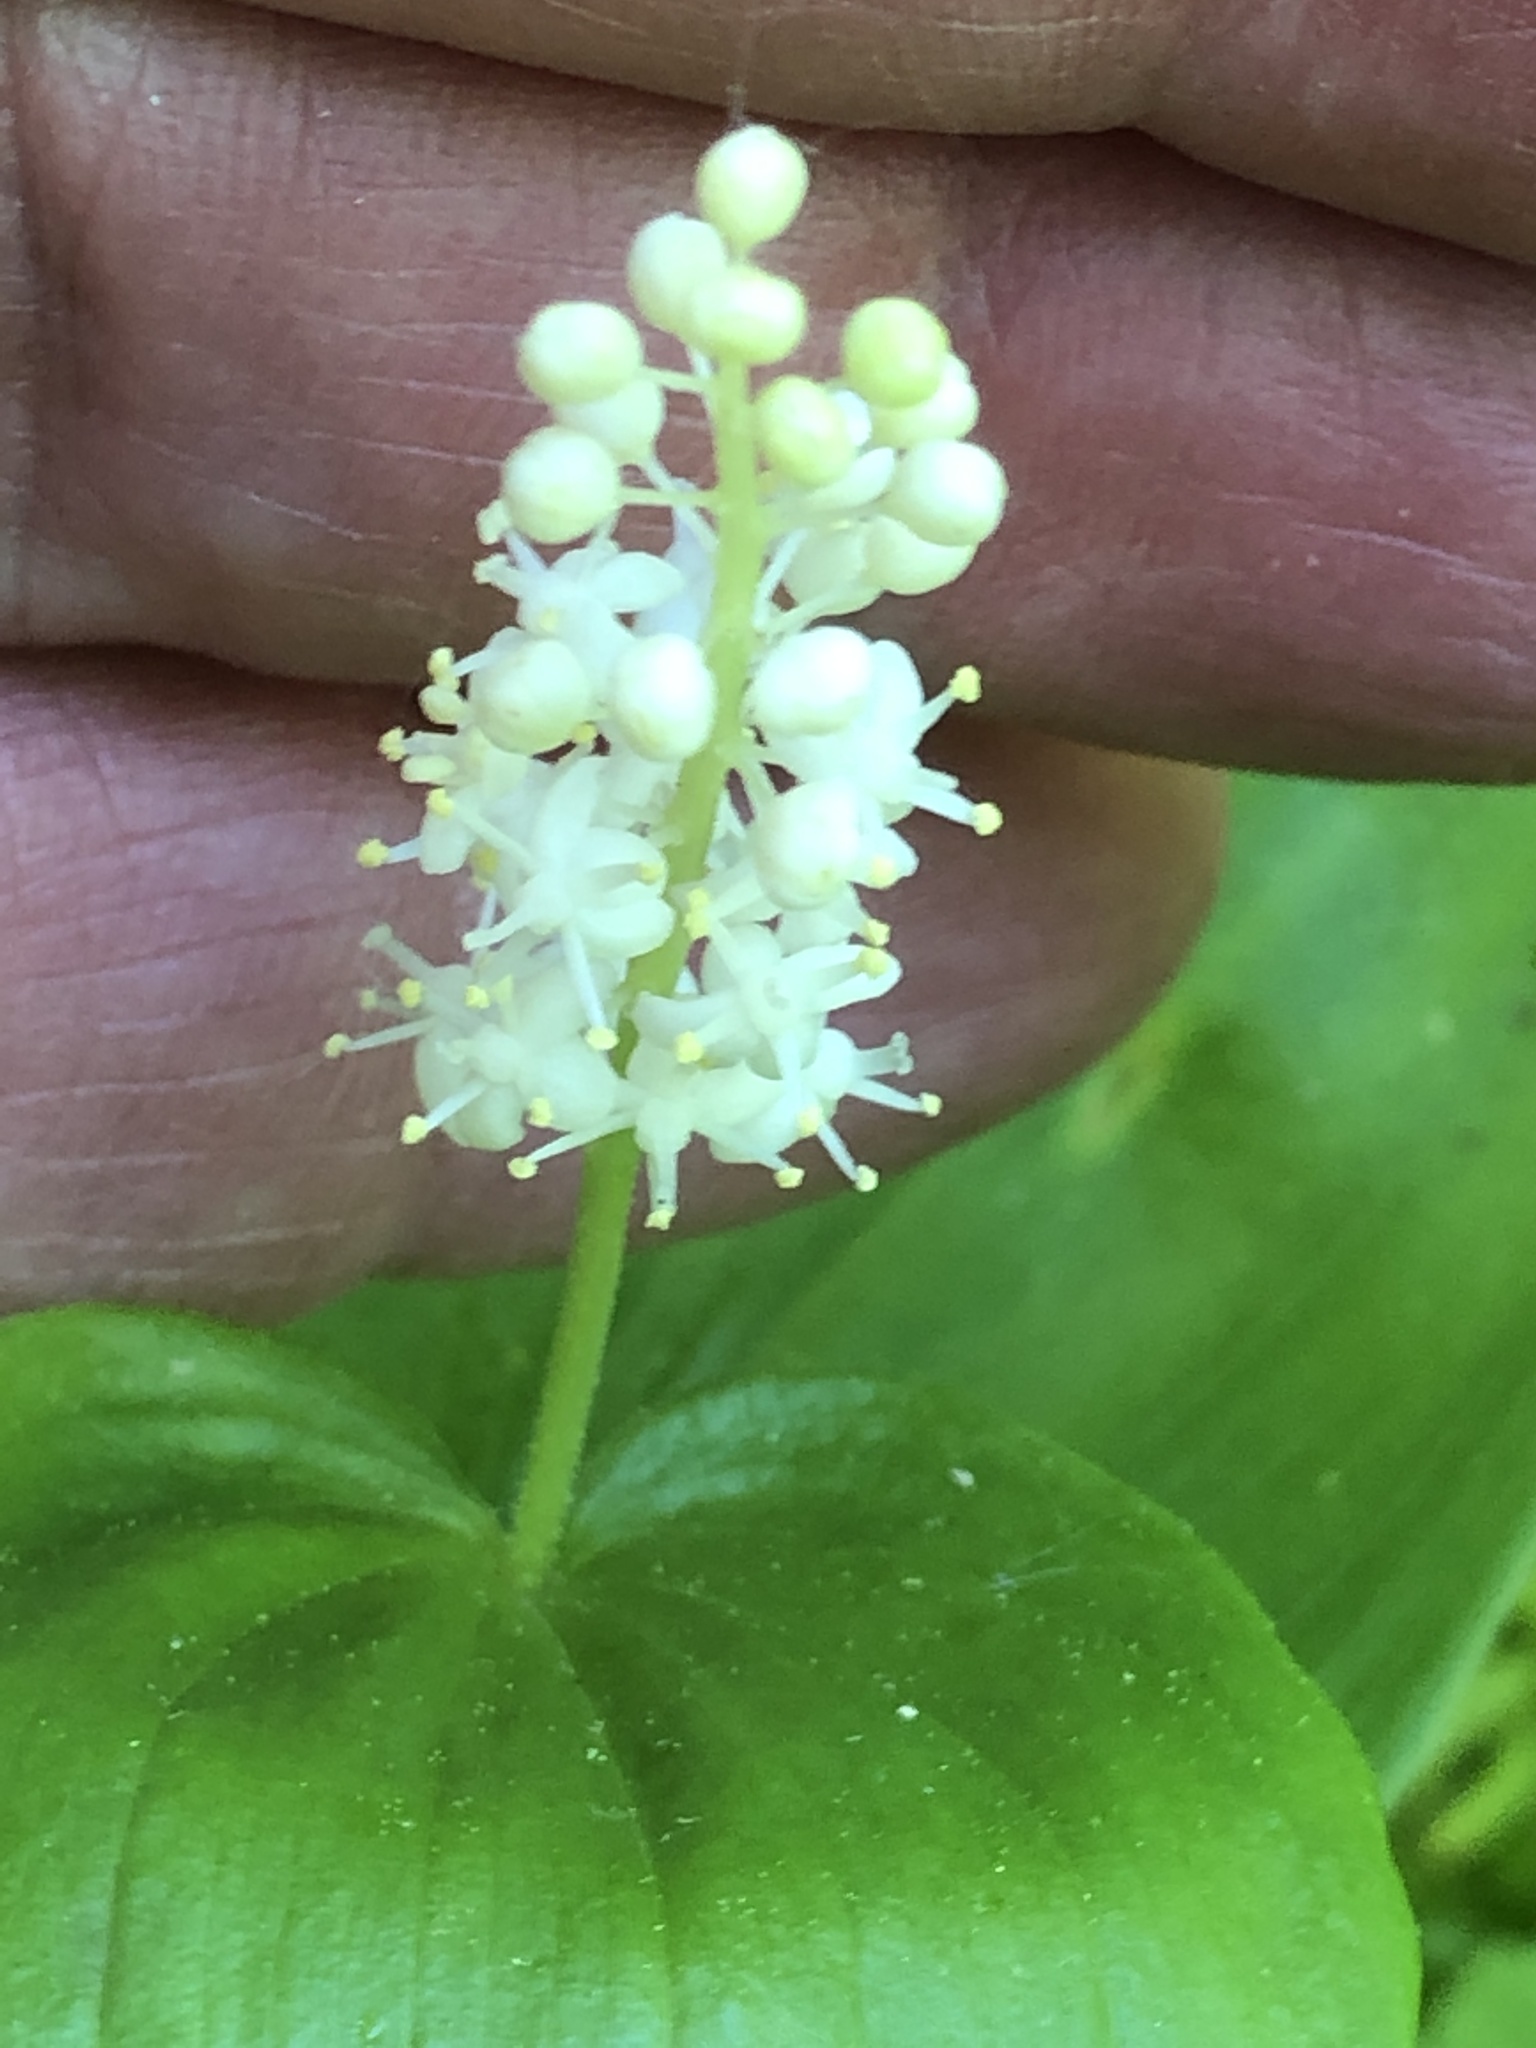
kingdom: Plantae
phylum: Tracheophyta
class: Liliopsida
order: Asparagales
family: Asparagaceae
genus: Maianthemum
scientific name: Maianthemum canadense
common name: False lily-of-the-valley
